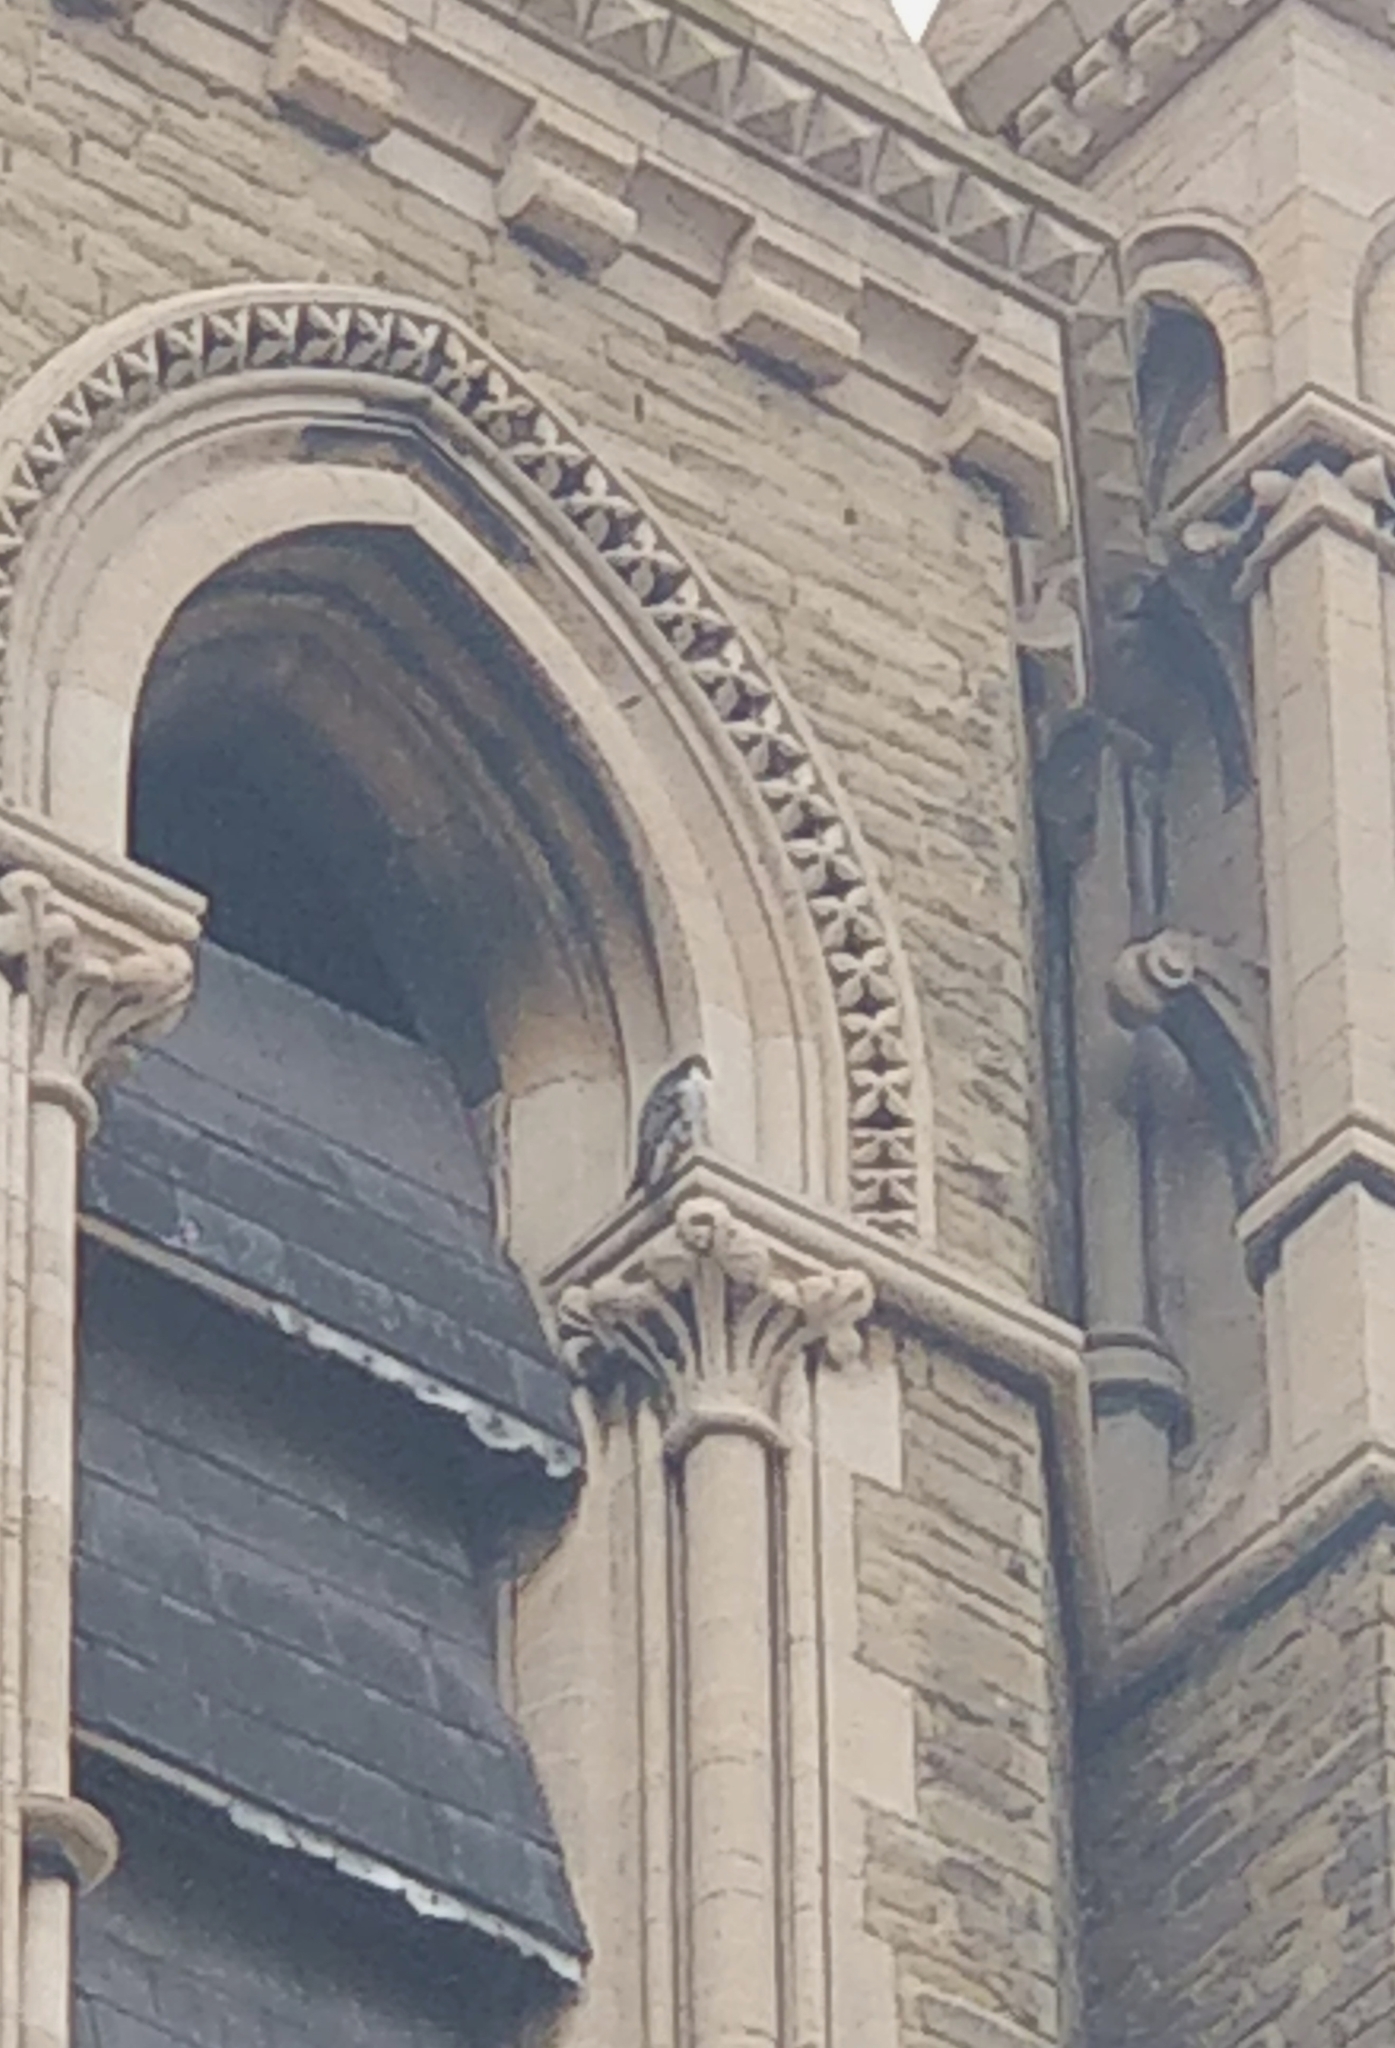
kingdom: Animalia
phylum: Chordata
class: Aves
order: Falconiformes
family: Falconidae
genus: Falco
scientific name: Falco peregrinus
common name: Peregrine falcon
